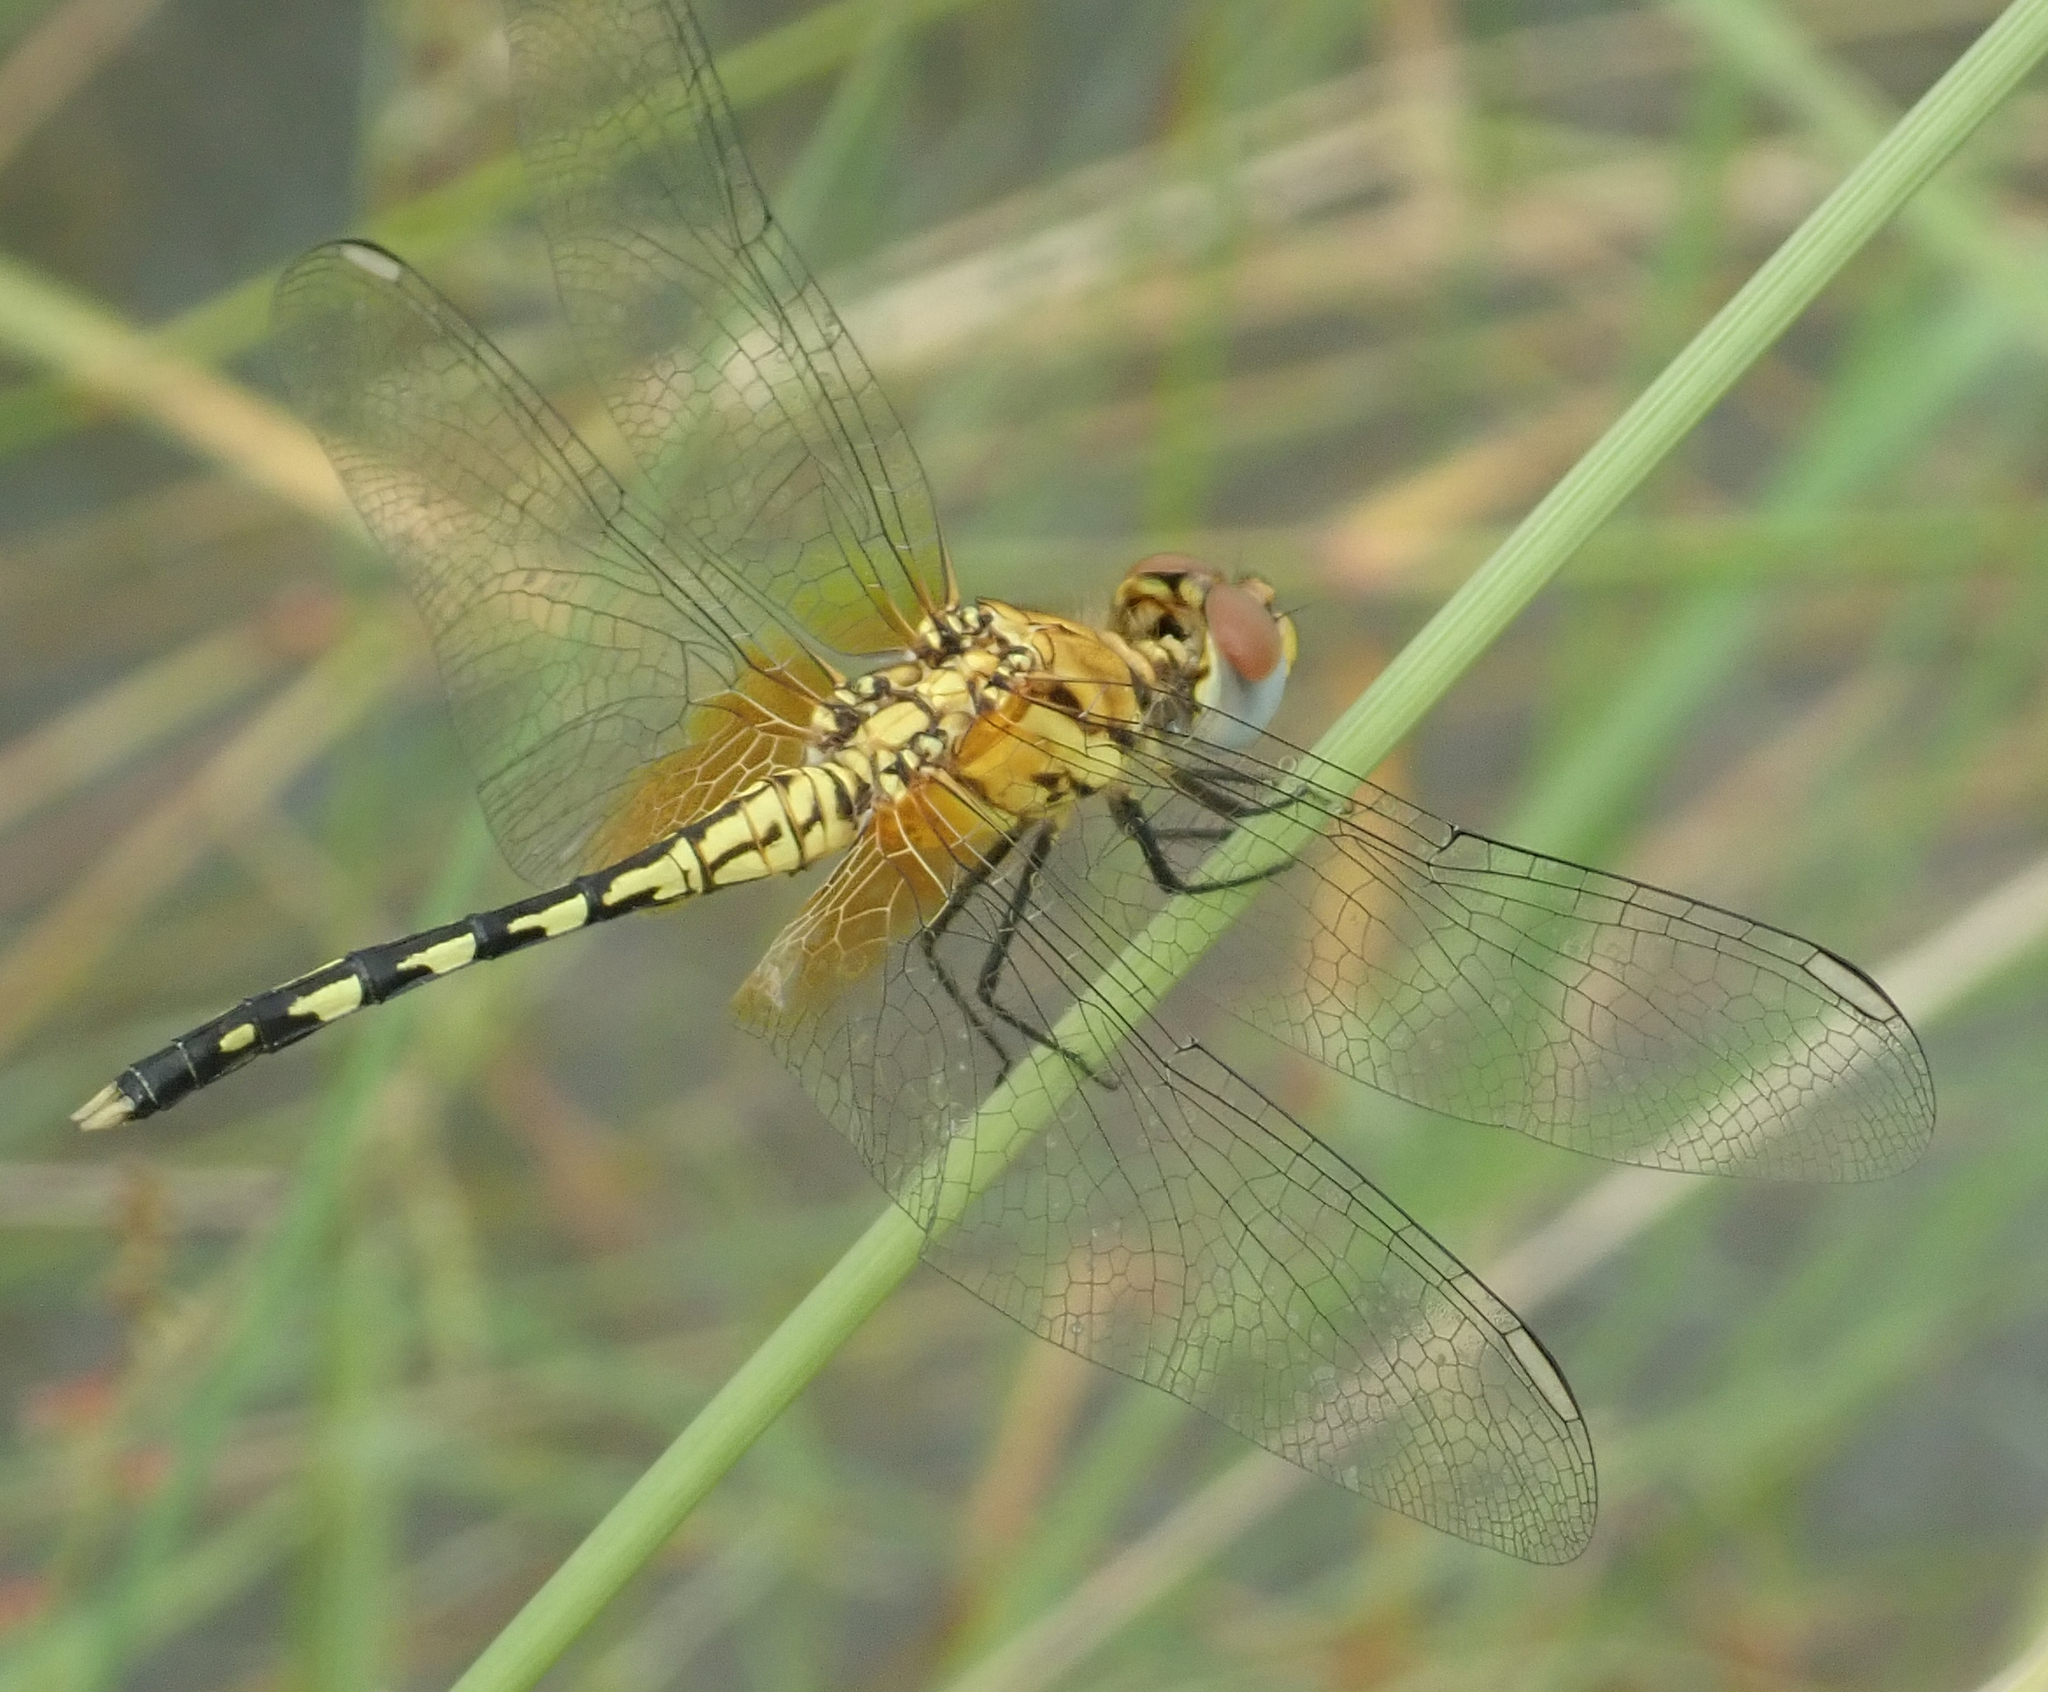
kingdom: Animalia
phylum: Arthropoda
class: Insecta
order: Odonata
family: Libellulidae
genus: Diplacodes
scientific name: Diplacodes luminans
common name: Barbet percher
